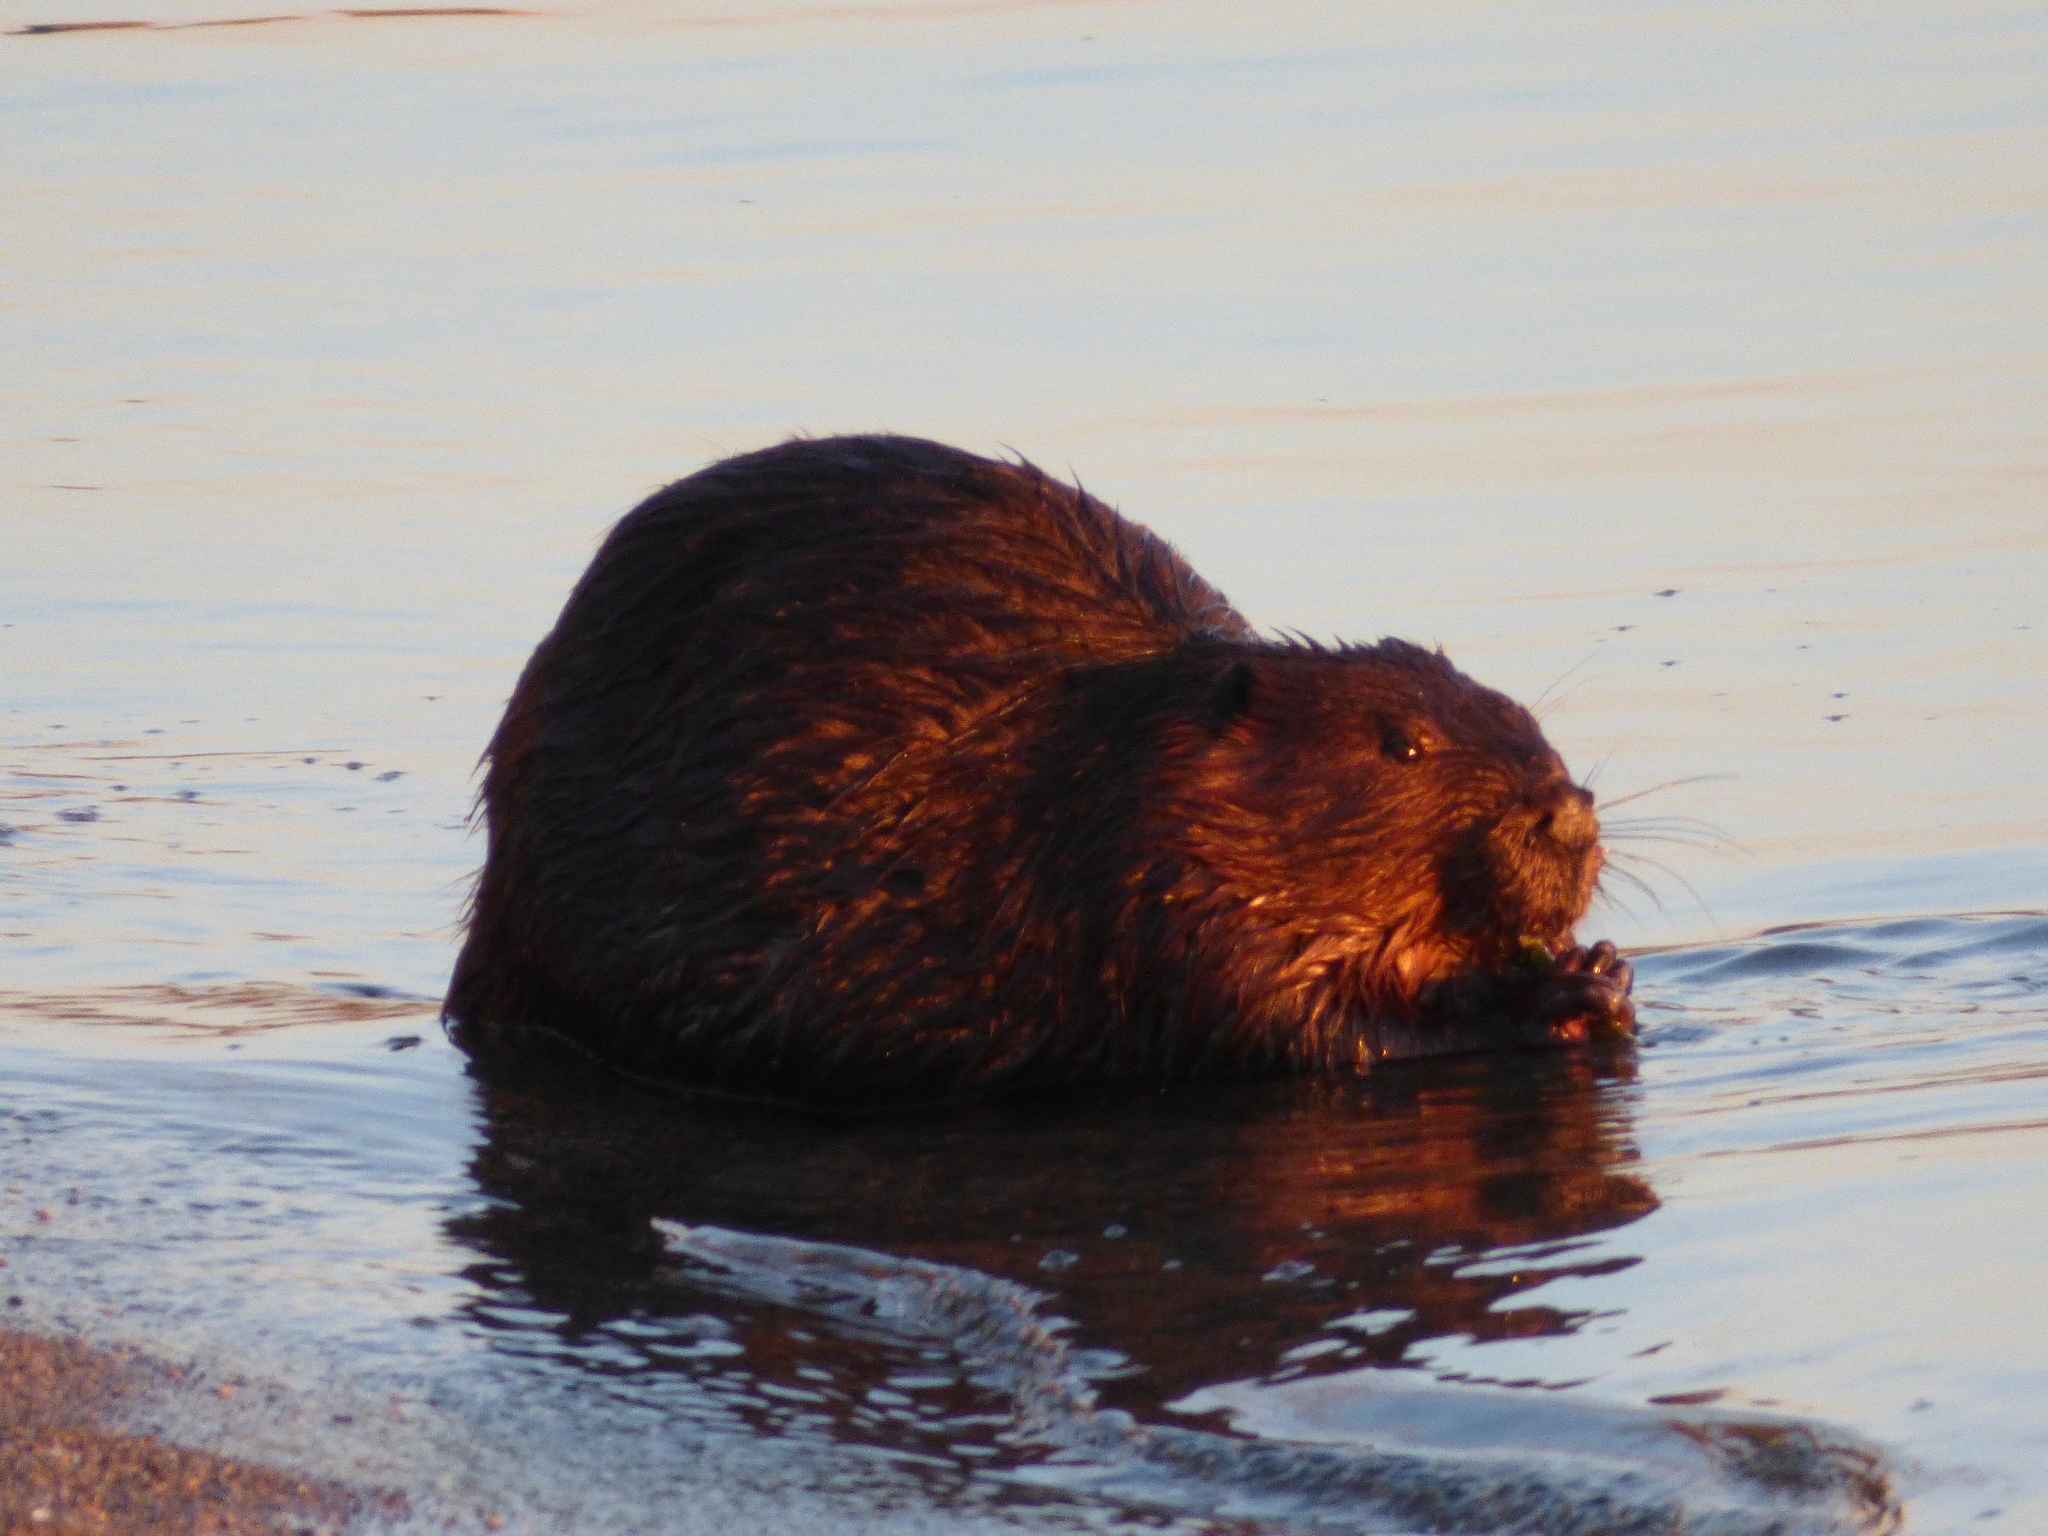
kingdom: Animalia
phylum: Chordata
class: Mammalia
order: Rodentia
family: Castoridae
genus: Castor
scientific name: Castor canadensis
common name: American beaver
